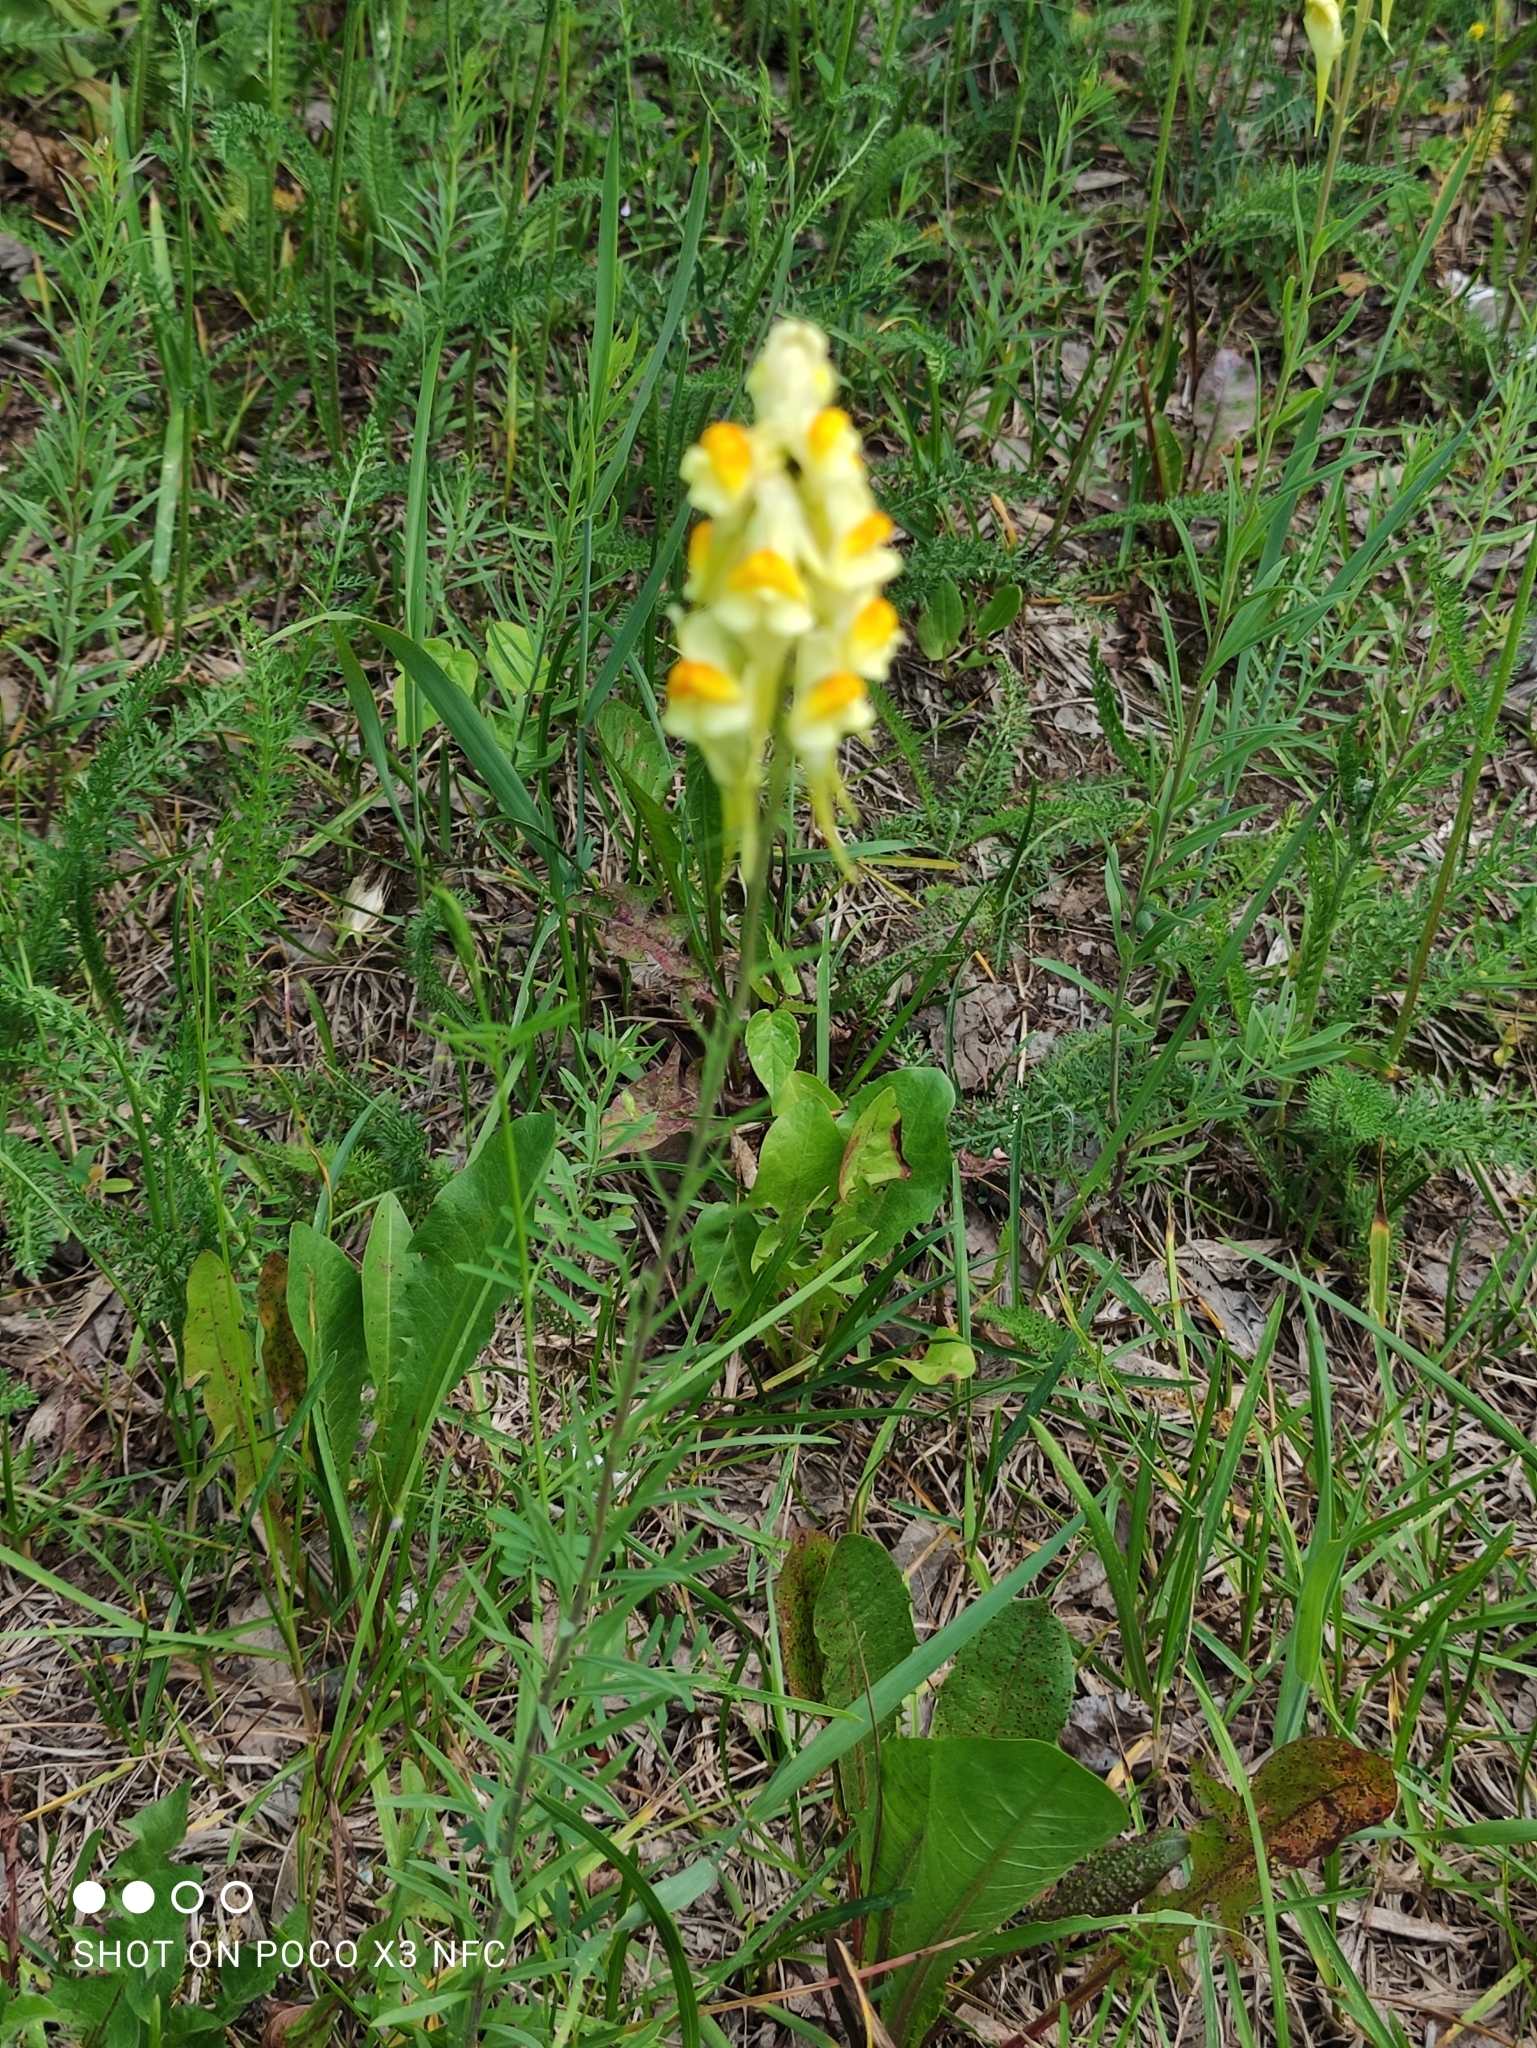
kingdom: Plantae
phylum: Tracheophyta
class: Magnoliopsida
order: Lamiales
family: Plantaginaceae
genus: Linaria
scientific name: Linaria vulgaris
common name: Butter and eggs
